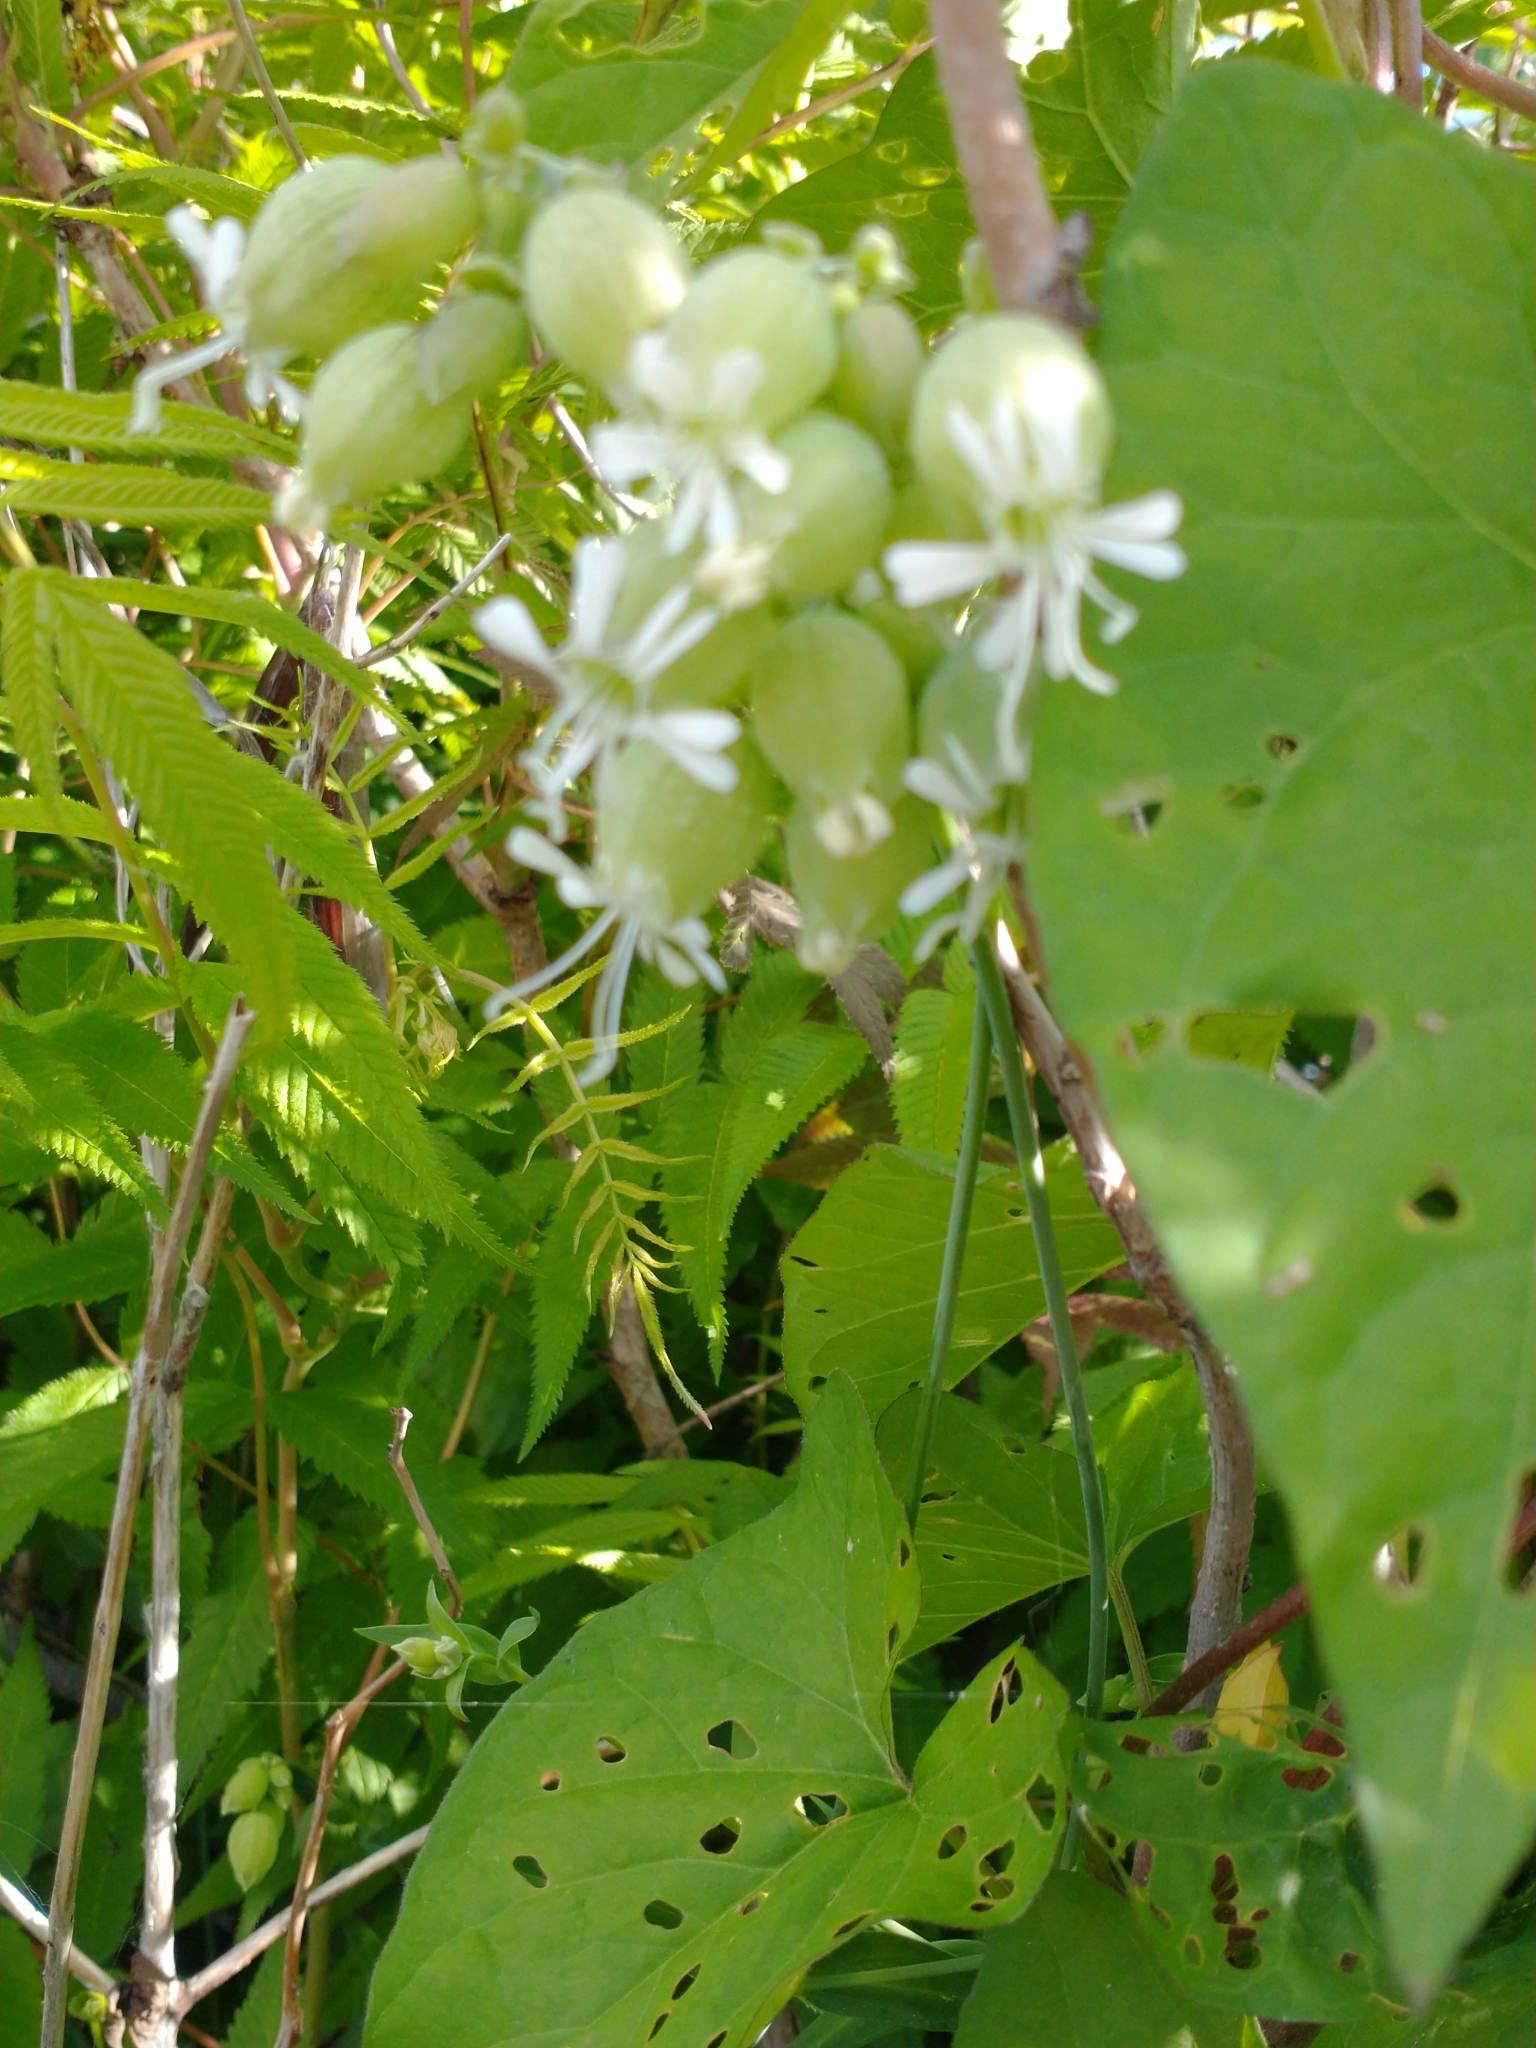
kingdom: Plantae
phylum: Tracheophyta
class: Magnoliopsida
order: Caryophyllales
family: Caryophyllaceae
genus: Silene
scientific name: Silene vulgaris
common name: Bladder campion
